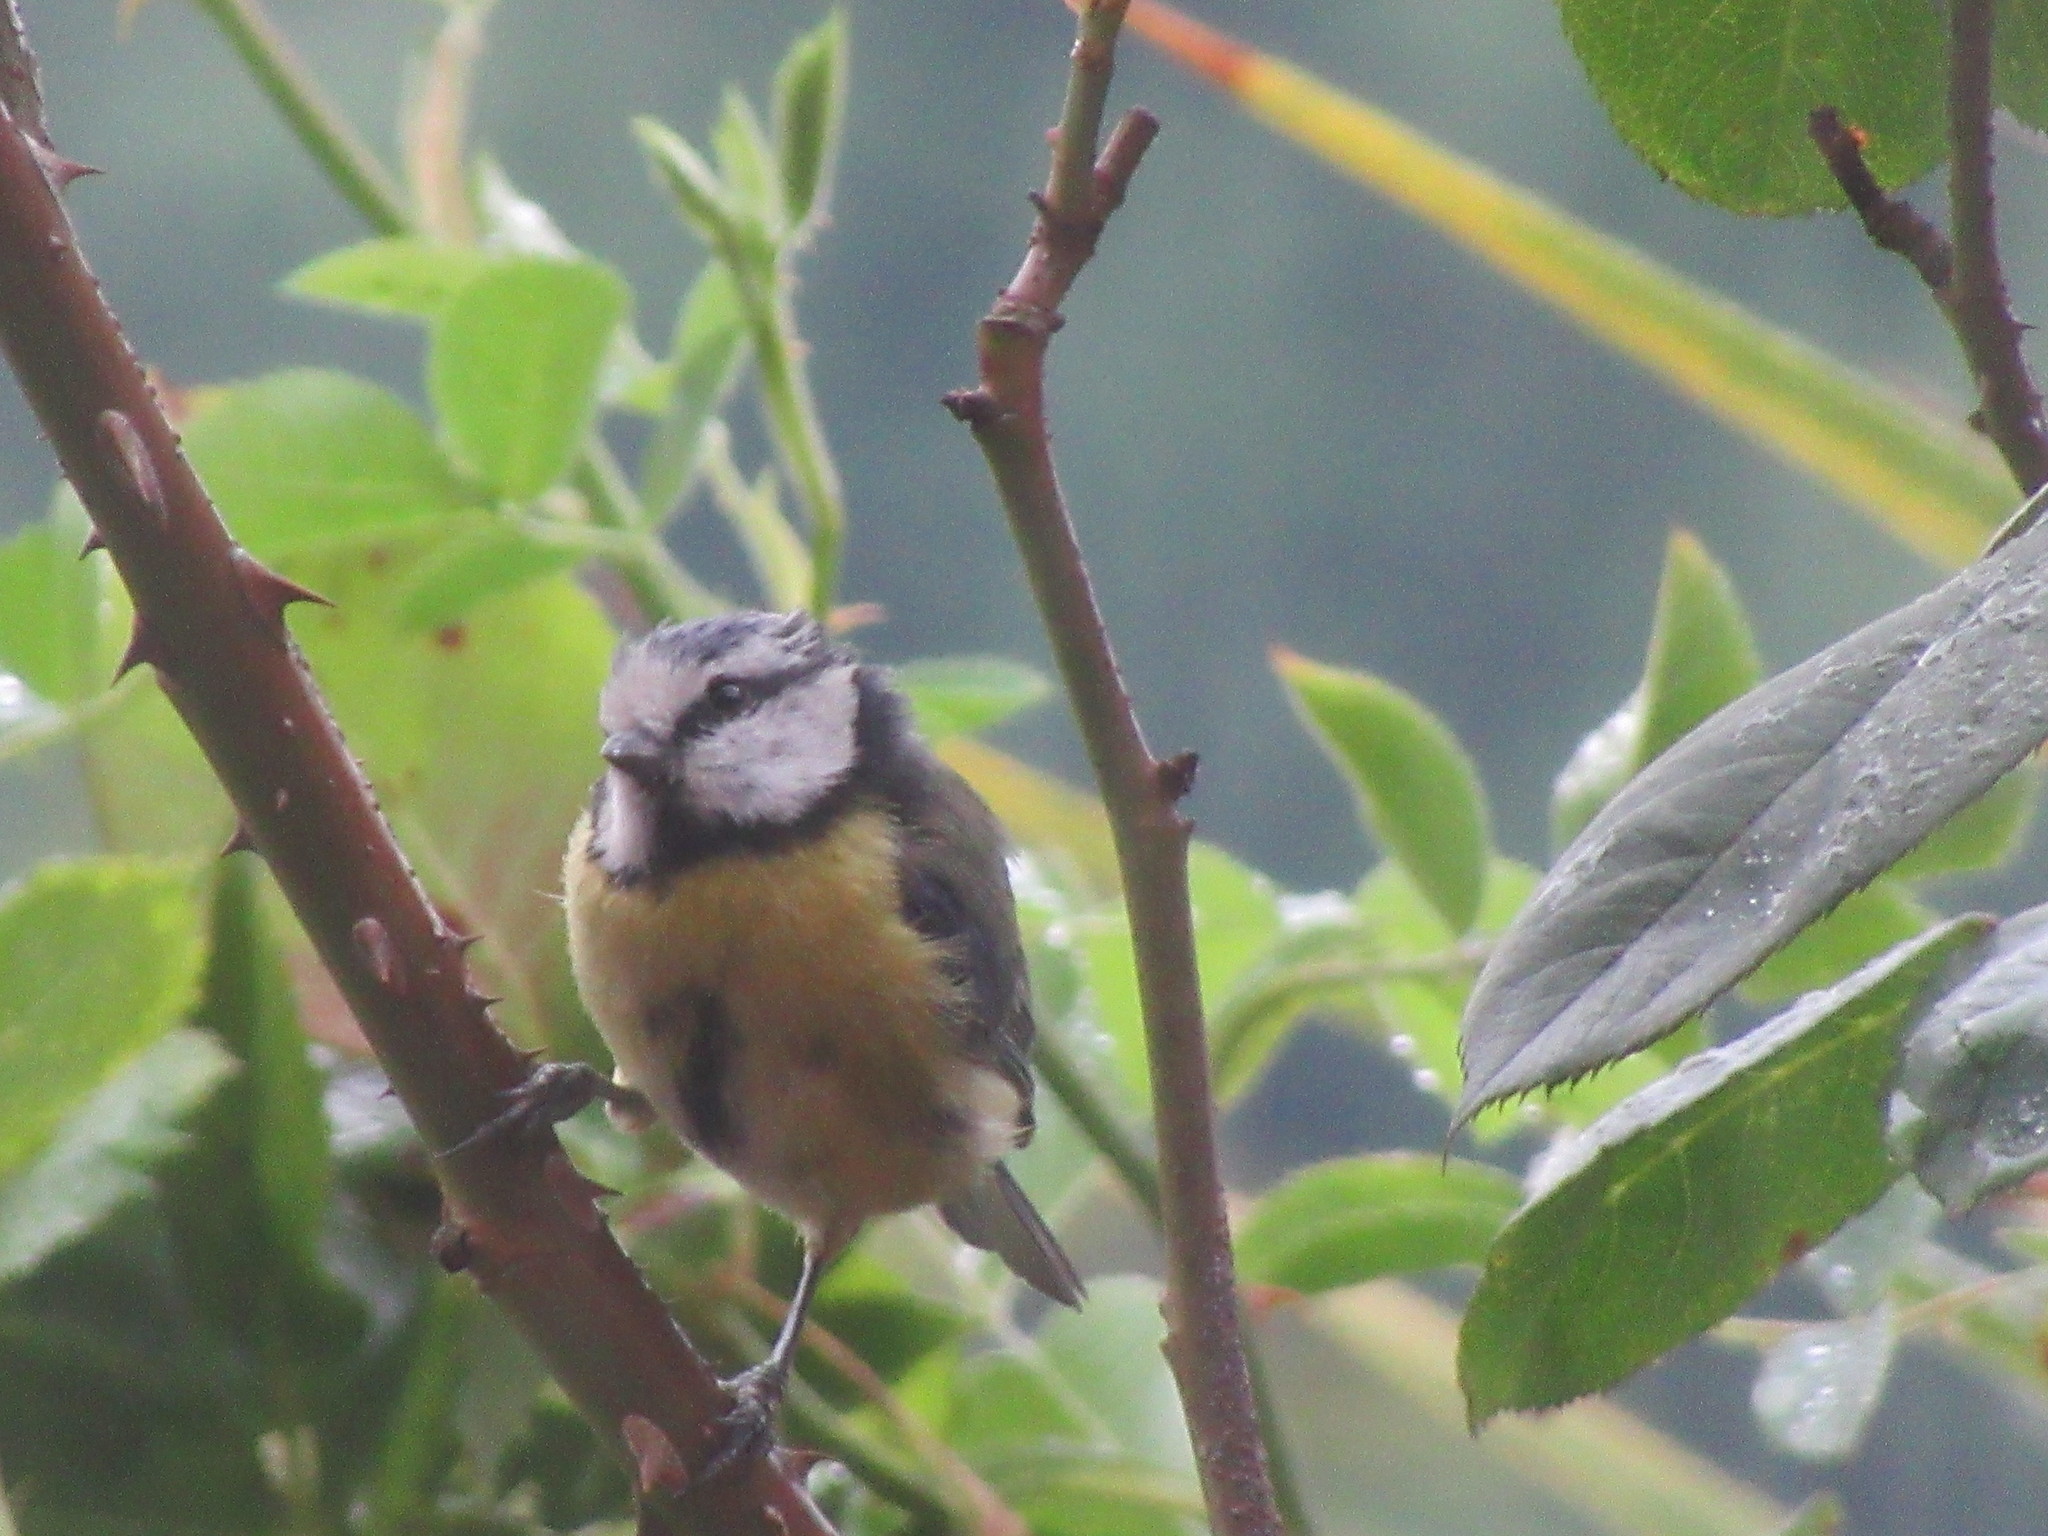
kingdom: Animalia
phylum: Chordata
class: Aves
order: Passeriformes
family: Paridae
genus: Cyanistes
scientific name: Cyanistes caeruleus
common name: Eurasian blue tit
